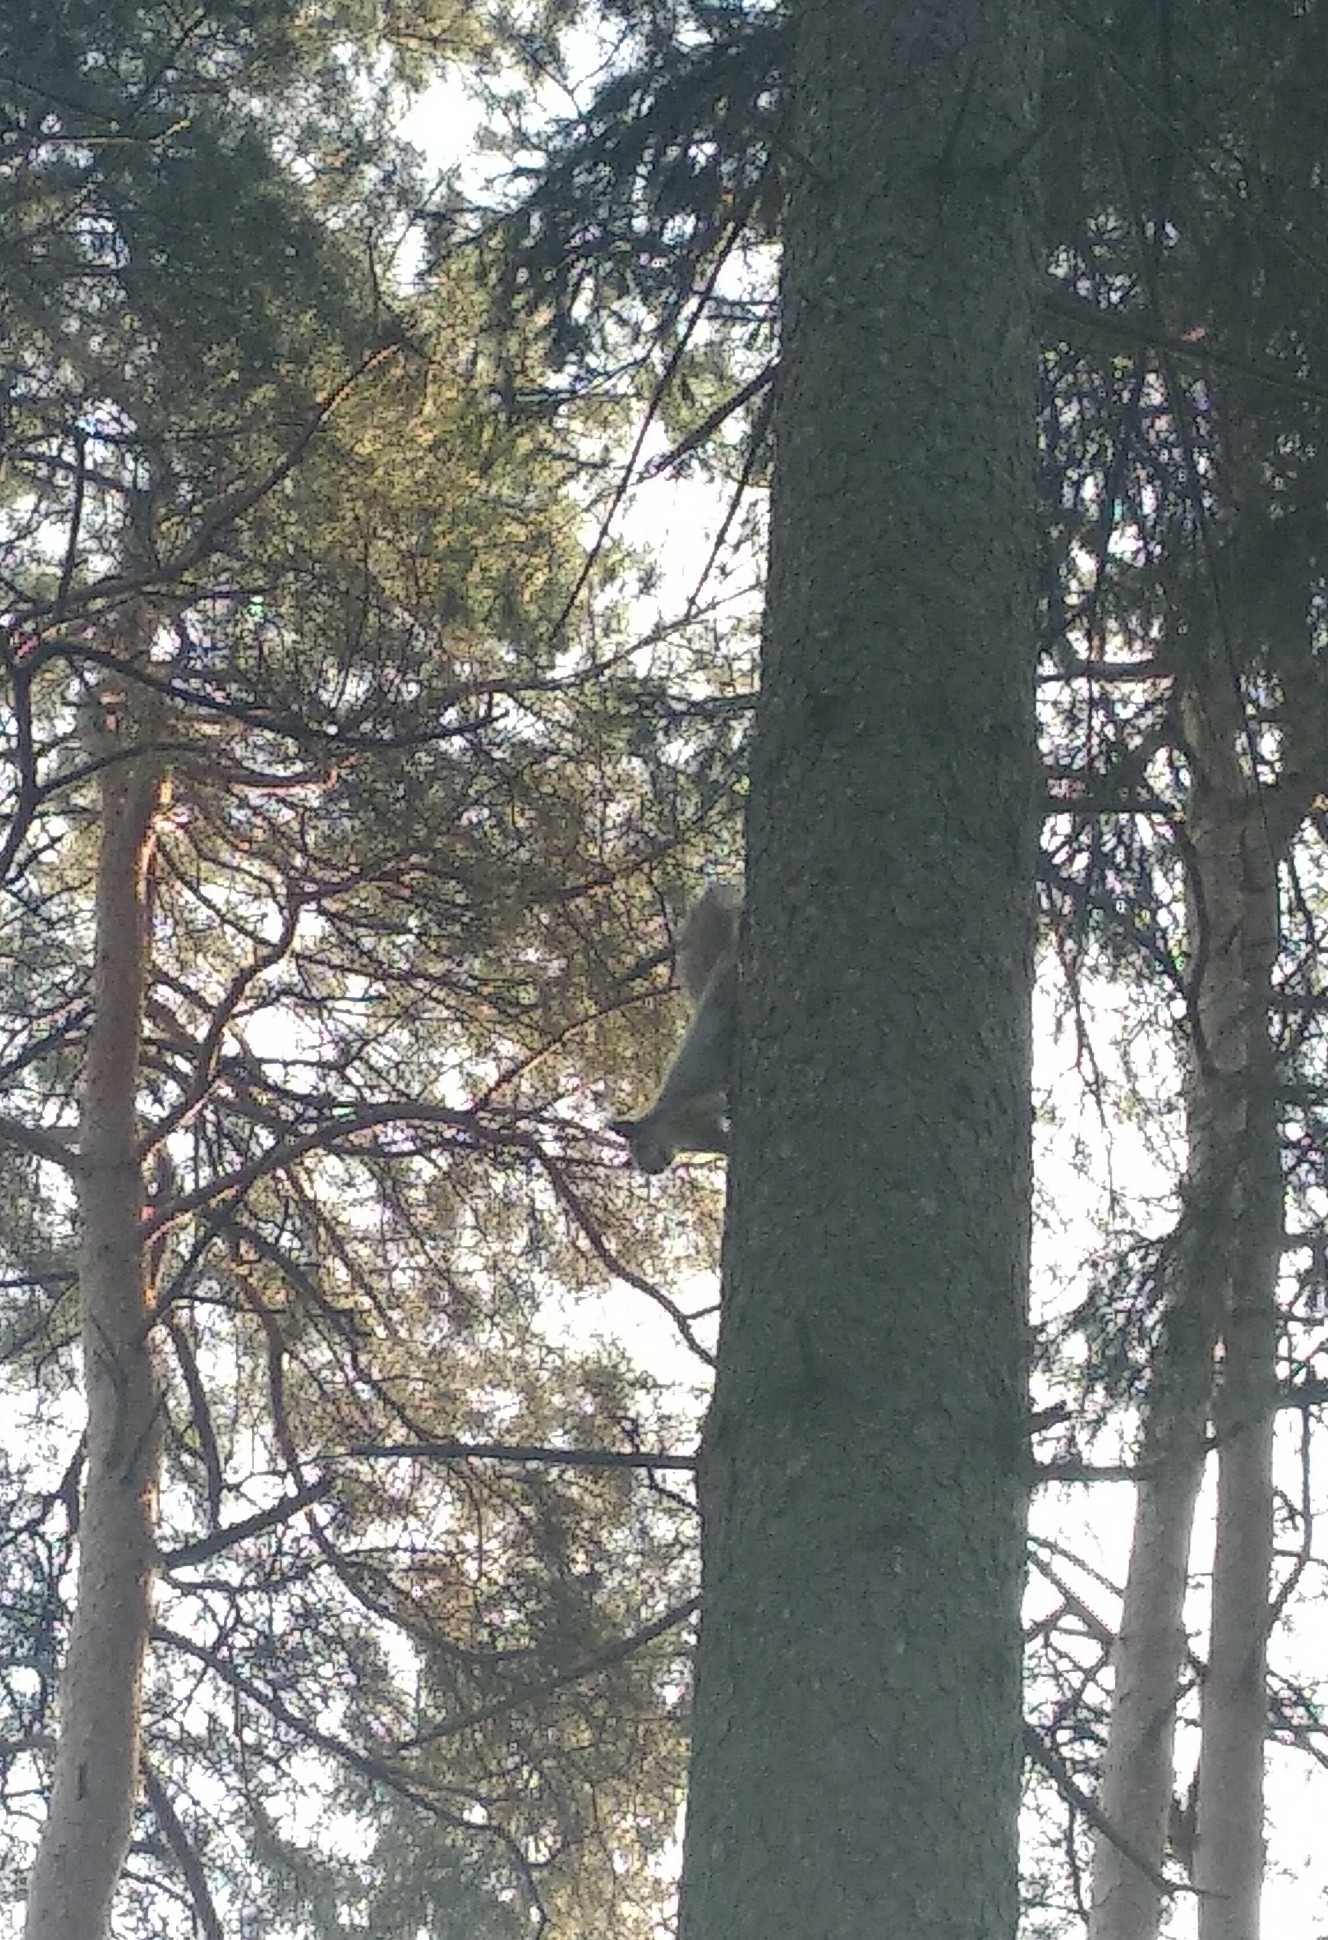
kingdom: Animalia
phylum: Chordata
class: Mammalia
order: Rodentia
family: Sciuridae
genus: Sciurus
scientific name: Sciurus vulgaris
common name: Eurasian red squirrel
